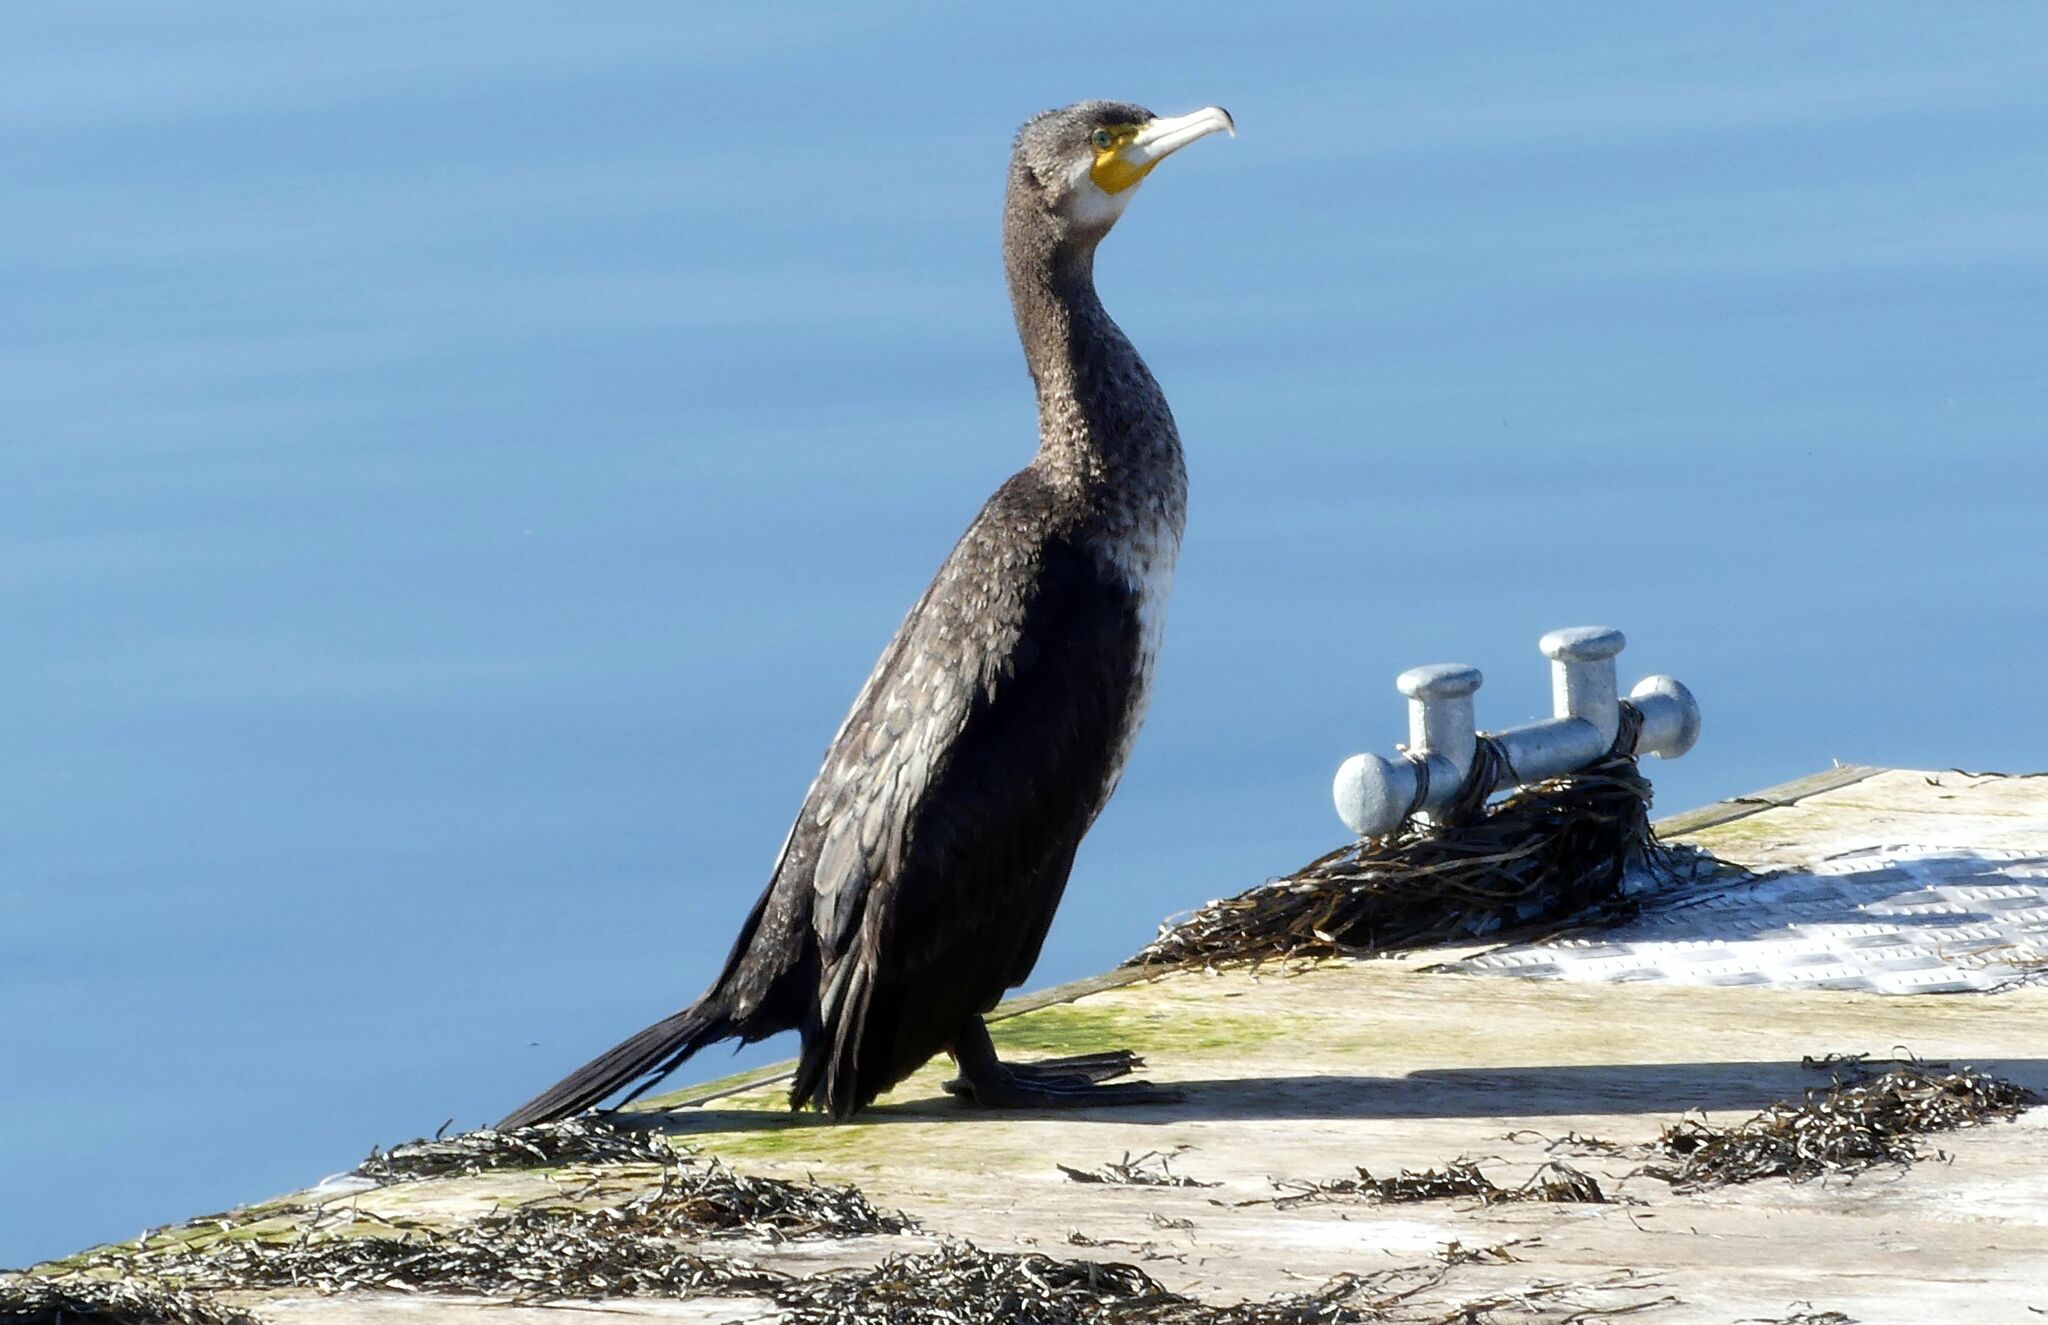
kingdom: Animalia
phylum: Chordata
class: Aves
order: Suliformes
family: Phalacrocoracidae
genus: Phalacrocorax
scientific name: Phalacrocorax carbo
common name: Great cormorant
